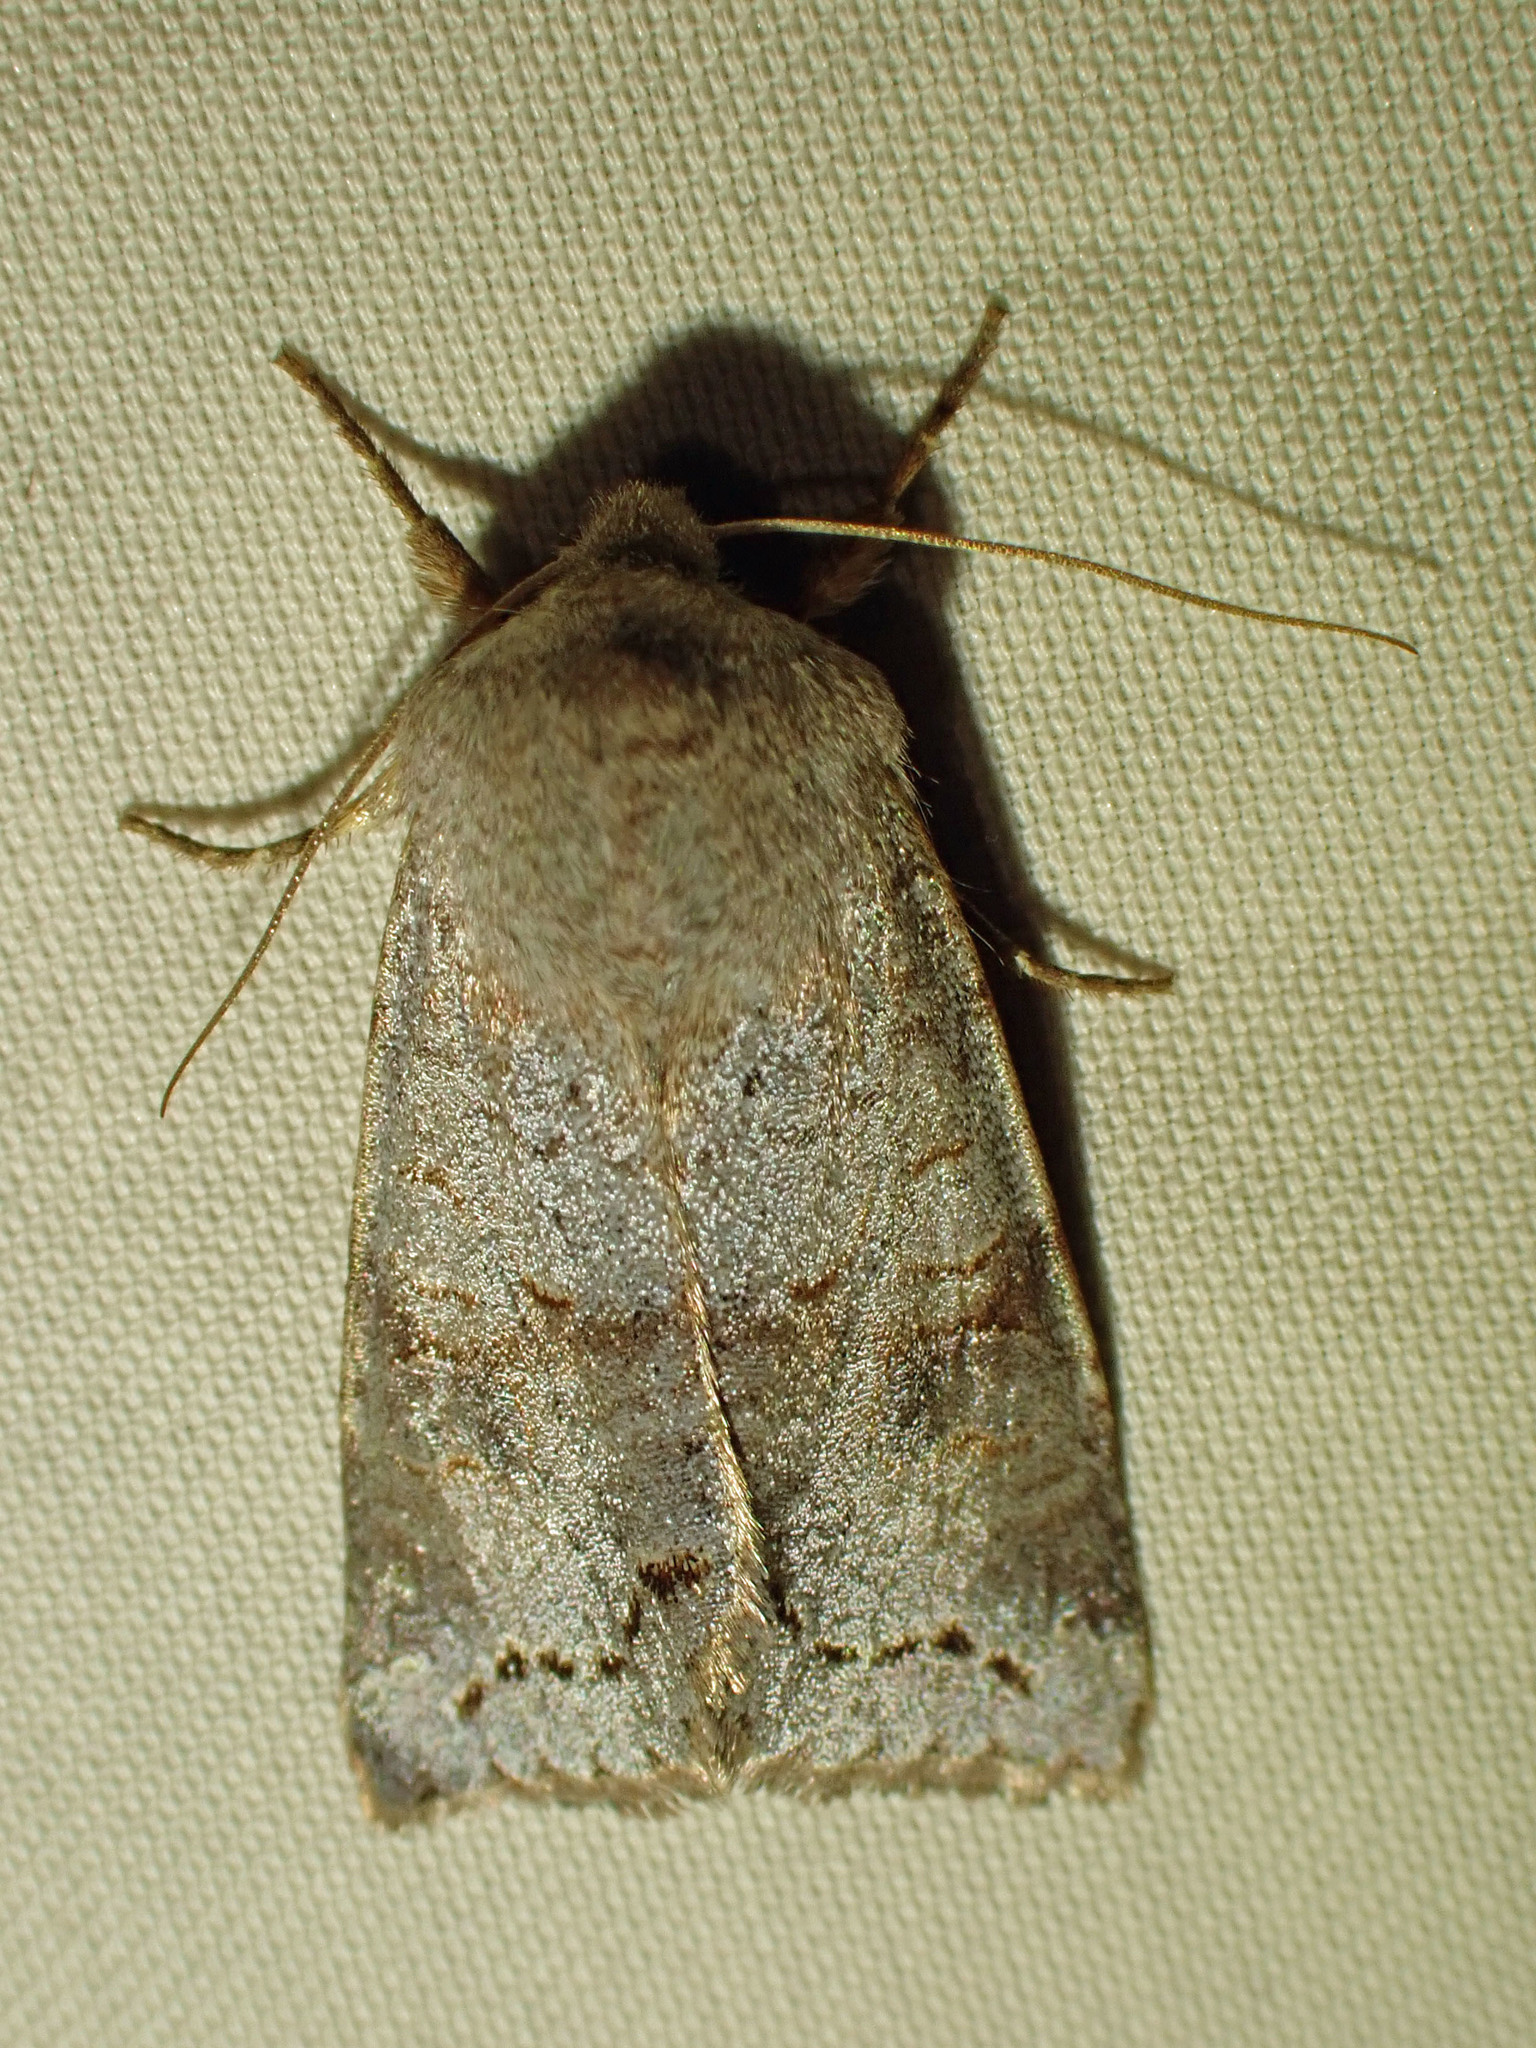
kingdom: Animalia
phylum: Arthropoda
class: Insecta
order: Lepidoptera
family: Noctuidae
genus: Orthosia
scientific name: Orthosia revicta
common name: Rusty whitesided caterpillar
